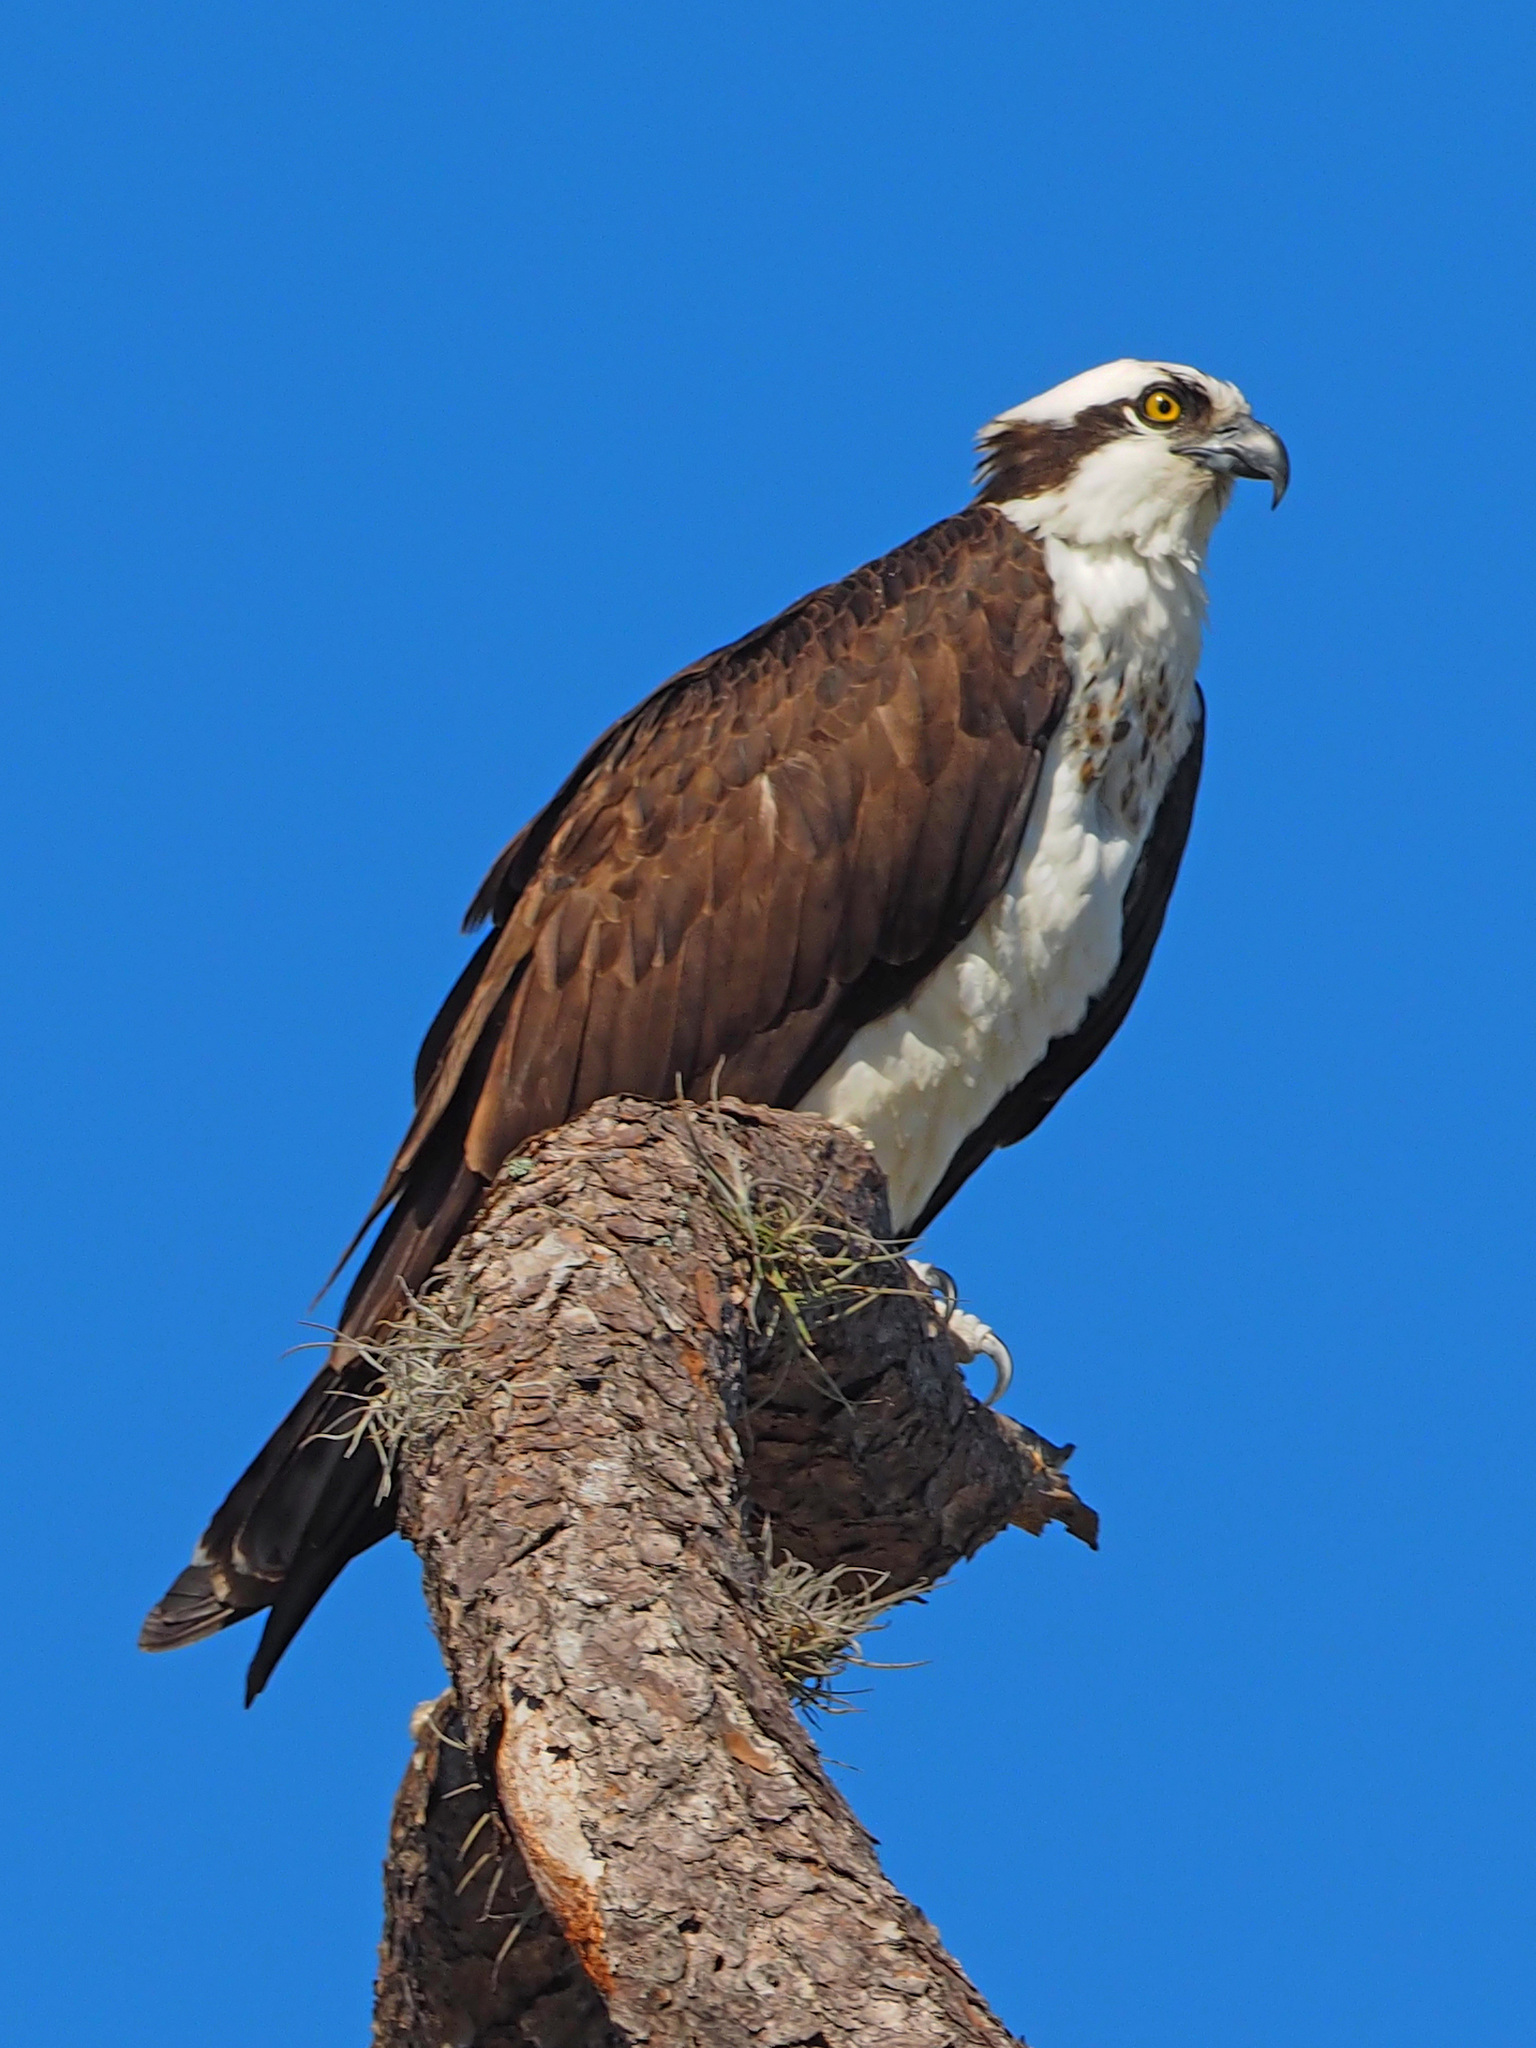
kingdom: Animalia
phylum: Chordata
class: Aves
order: Accipitriformes
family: Pandionidae
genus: Pandion
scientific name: Pandion haliaetus
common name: Osprey
